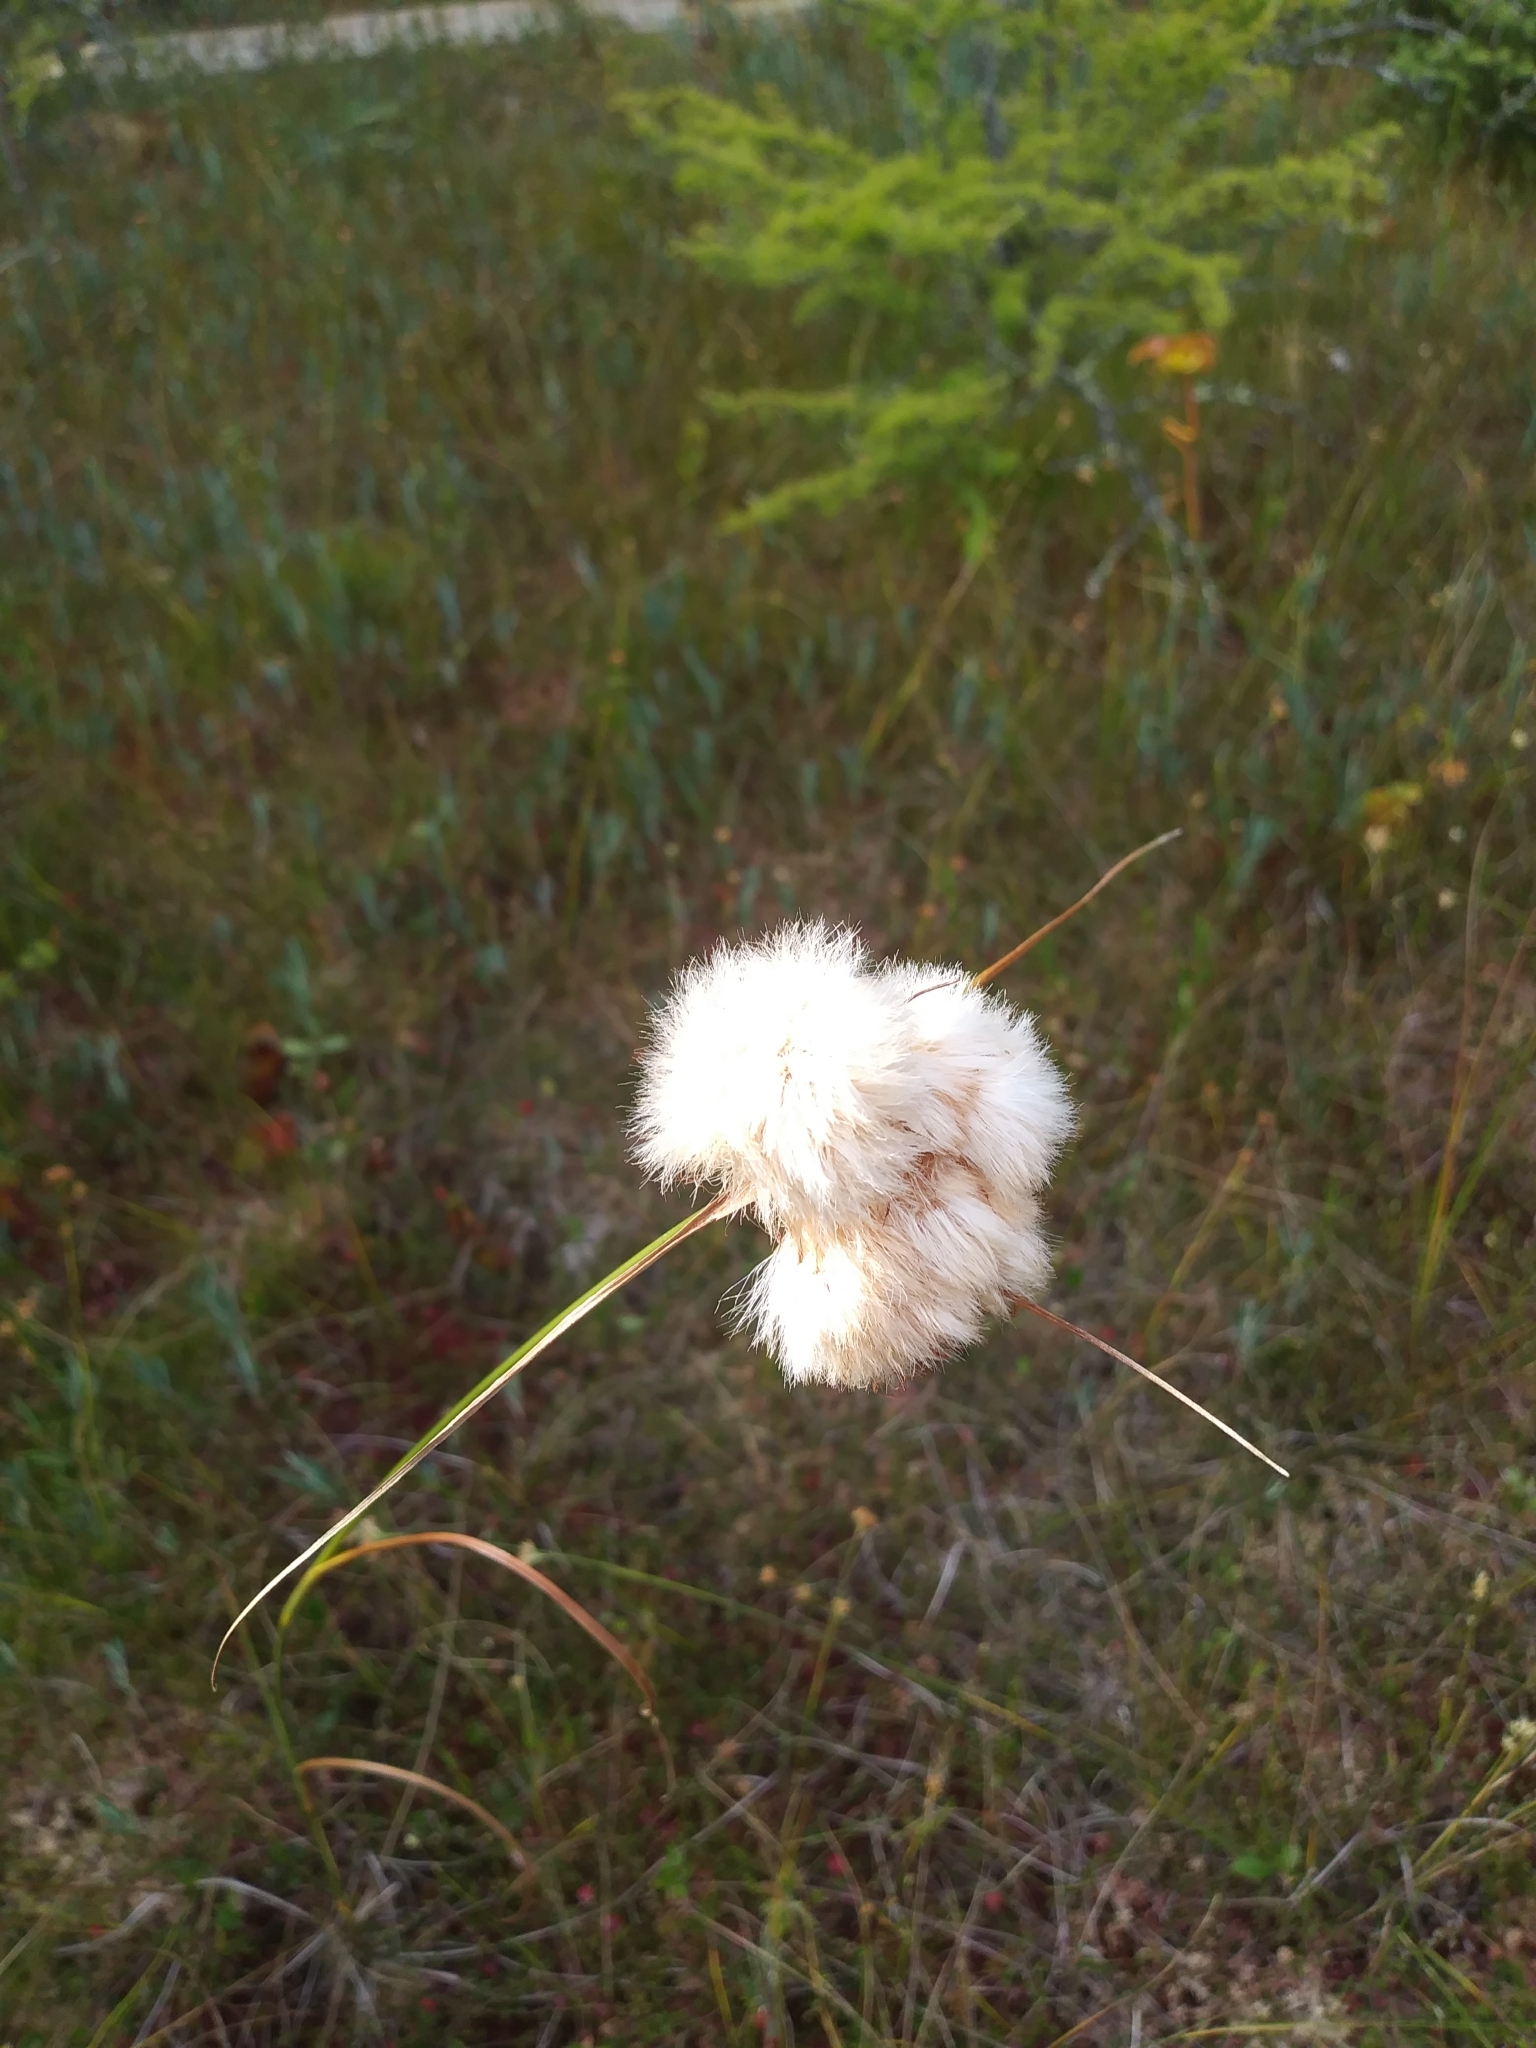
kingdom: Plantae
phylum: Tracheophyta
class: Liliopsida
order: Poales
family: Cyperaceae
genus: Eriophorum
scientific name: Eriophorum virginicum
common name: Tawny cottongrass
